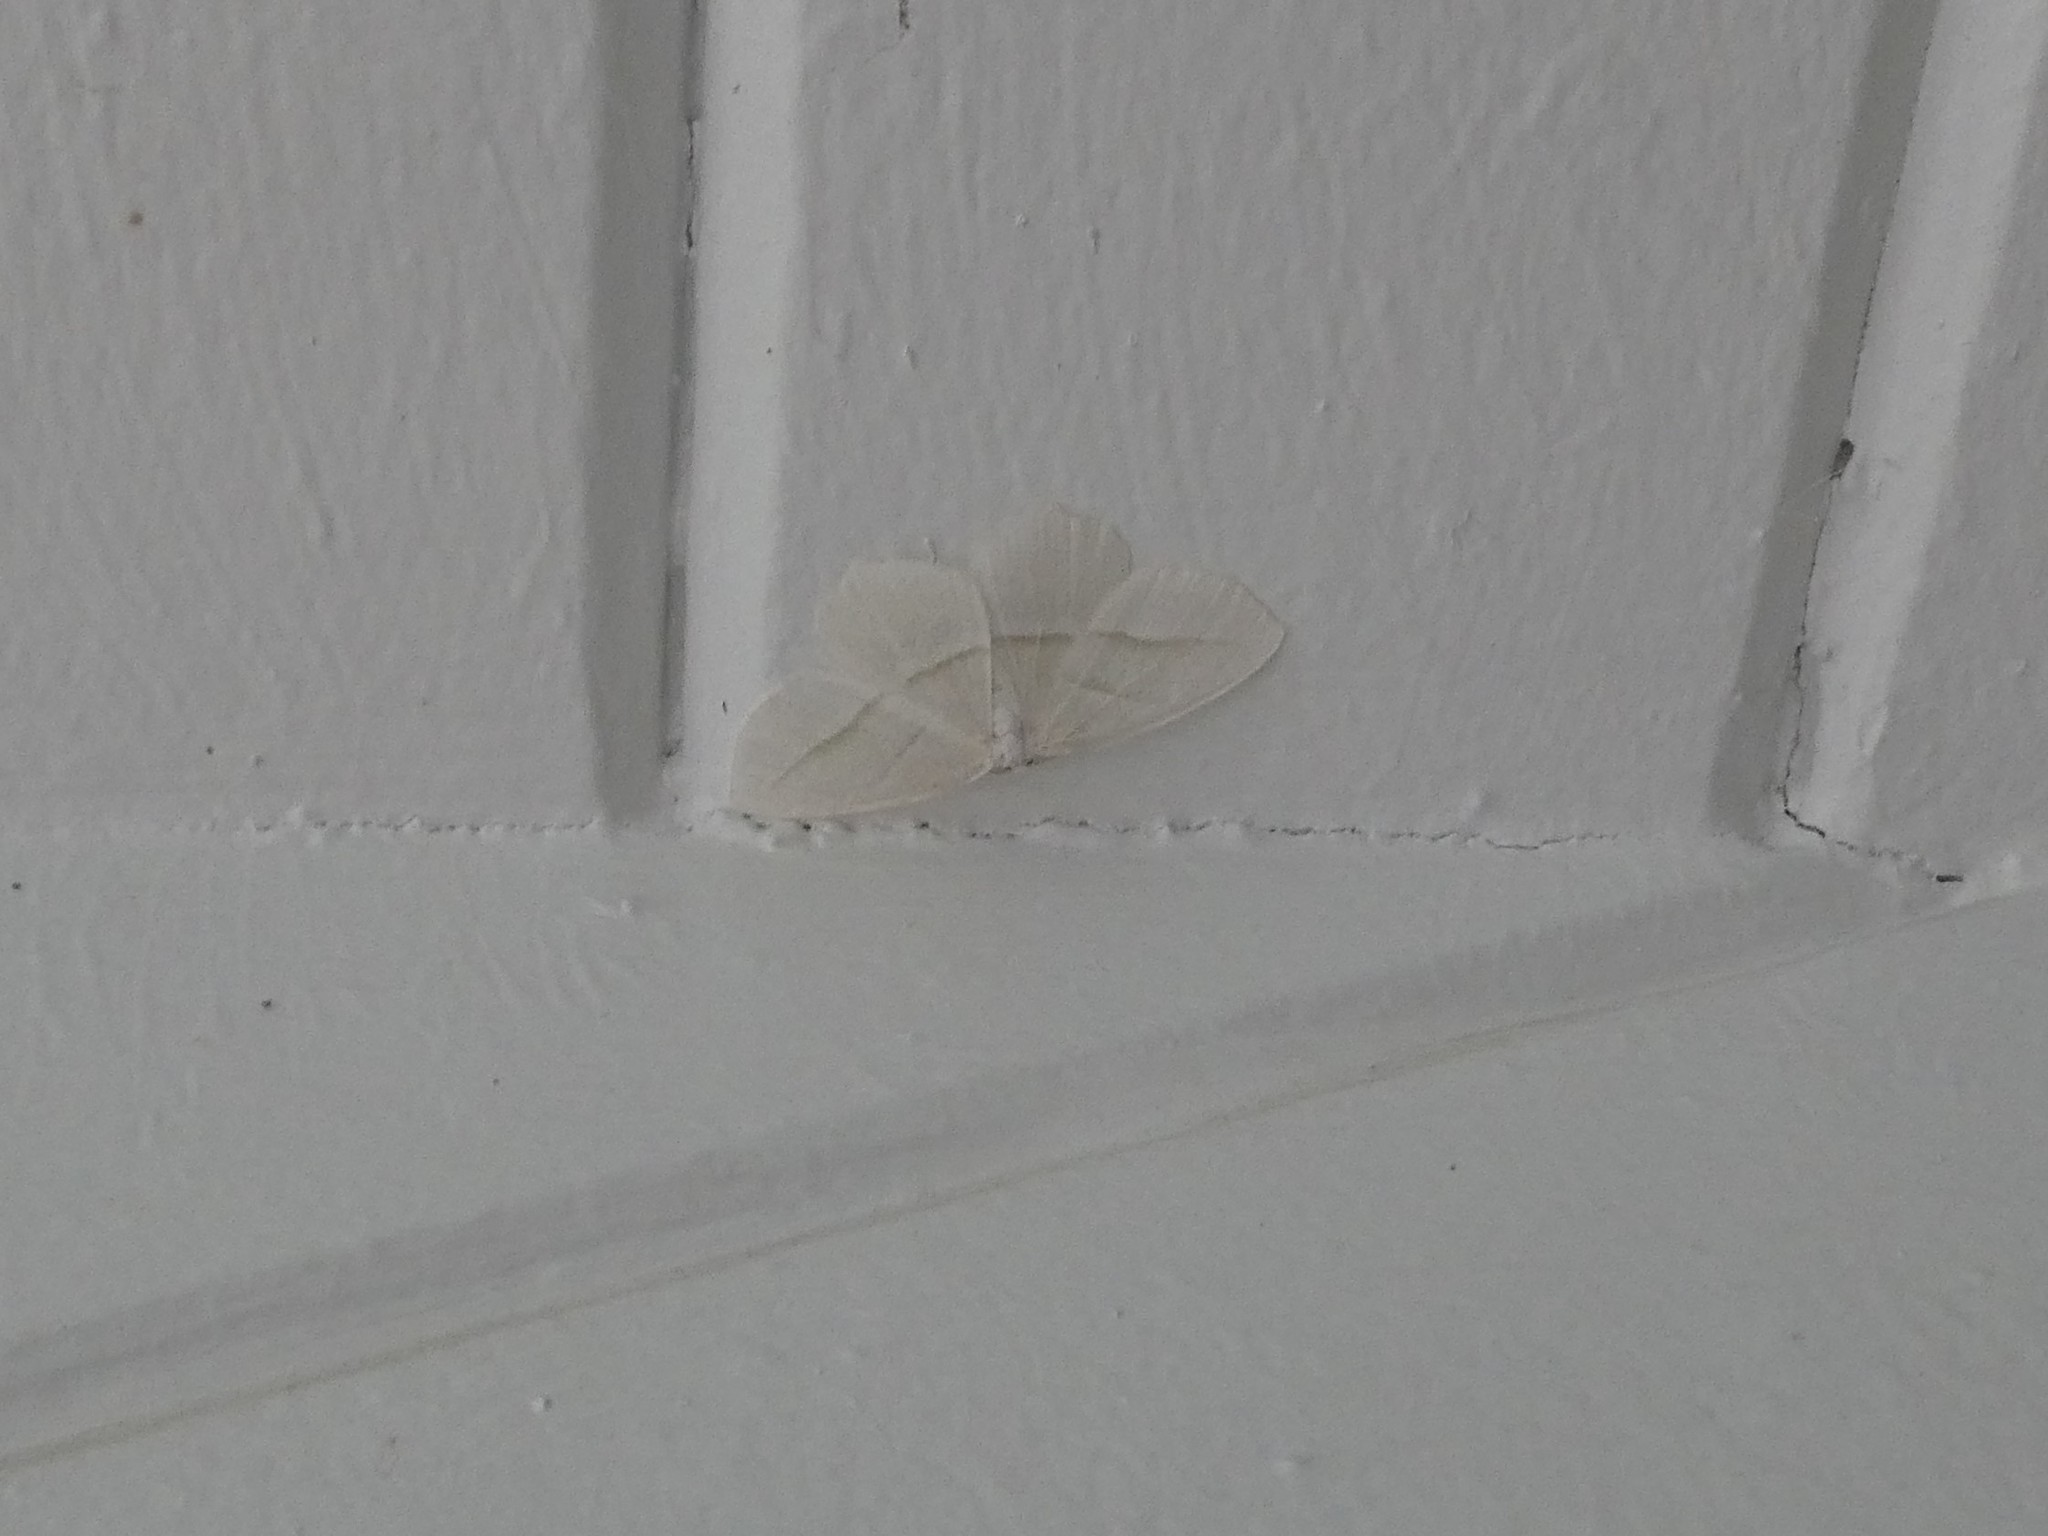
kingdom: Animalia
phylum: Arthropoda
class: Insecta
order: Lepidoptera
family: Geometridae
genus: Campaea
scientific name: Campaea perlata
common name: Fringed looper
